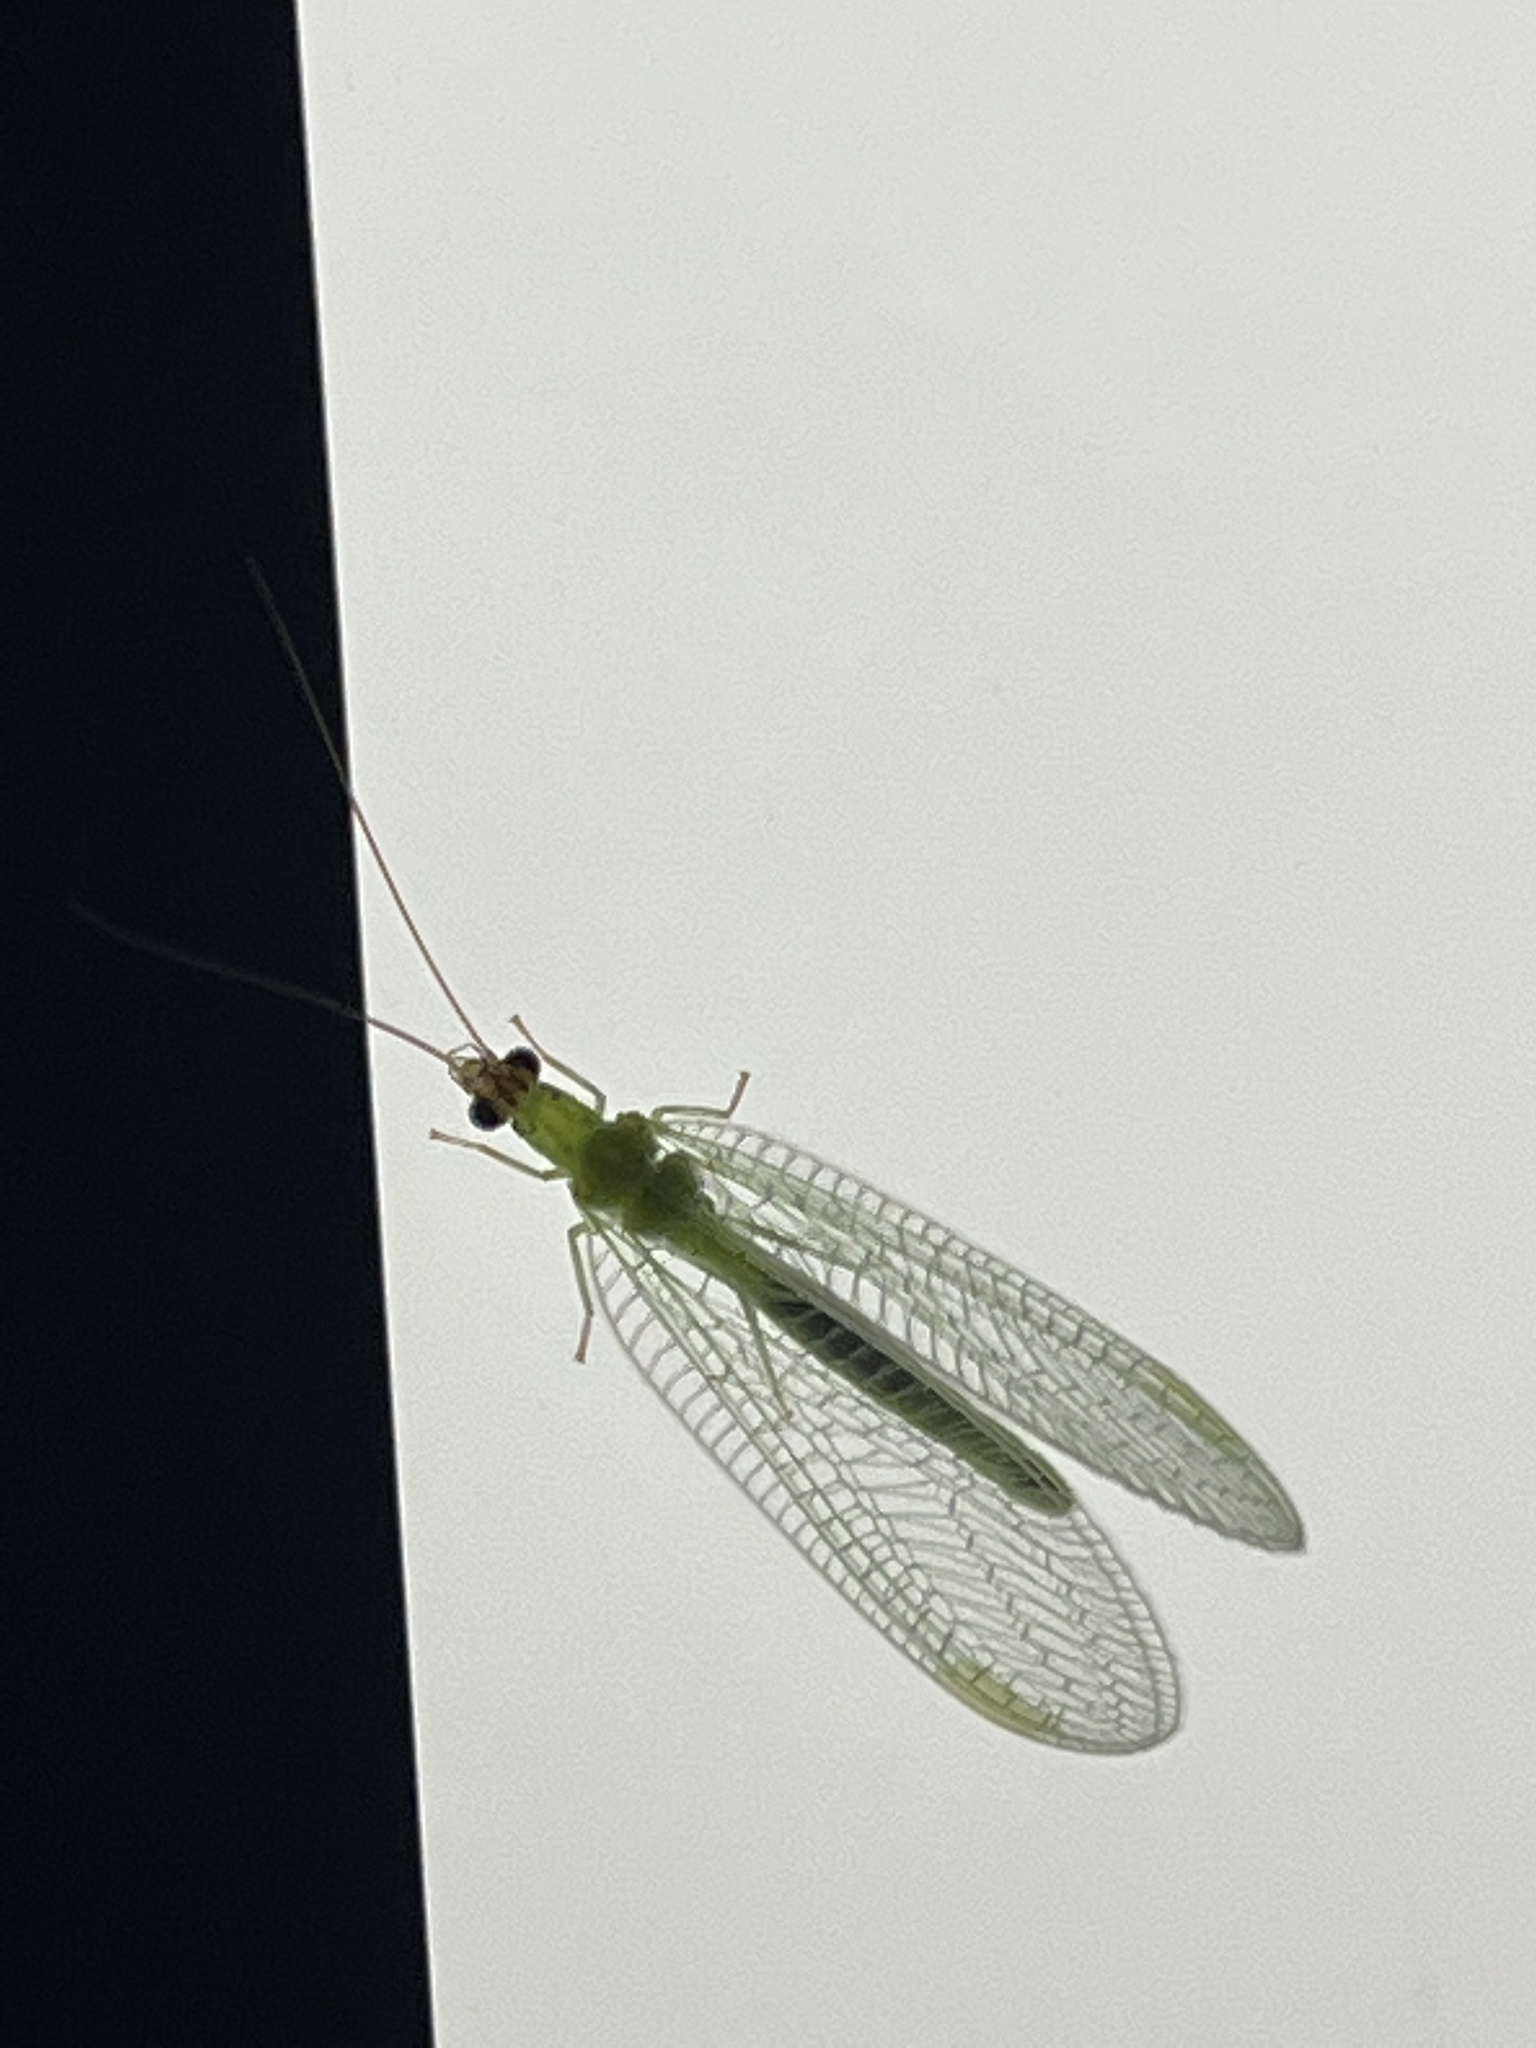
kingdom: Animalia
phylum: Arthropoda
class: Insecta
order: Neuroptera
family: Chrysopidae
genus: Chrysopa
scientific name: Chrysopa oculata
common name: Golden-eyed lacewing
